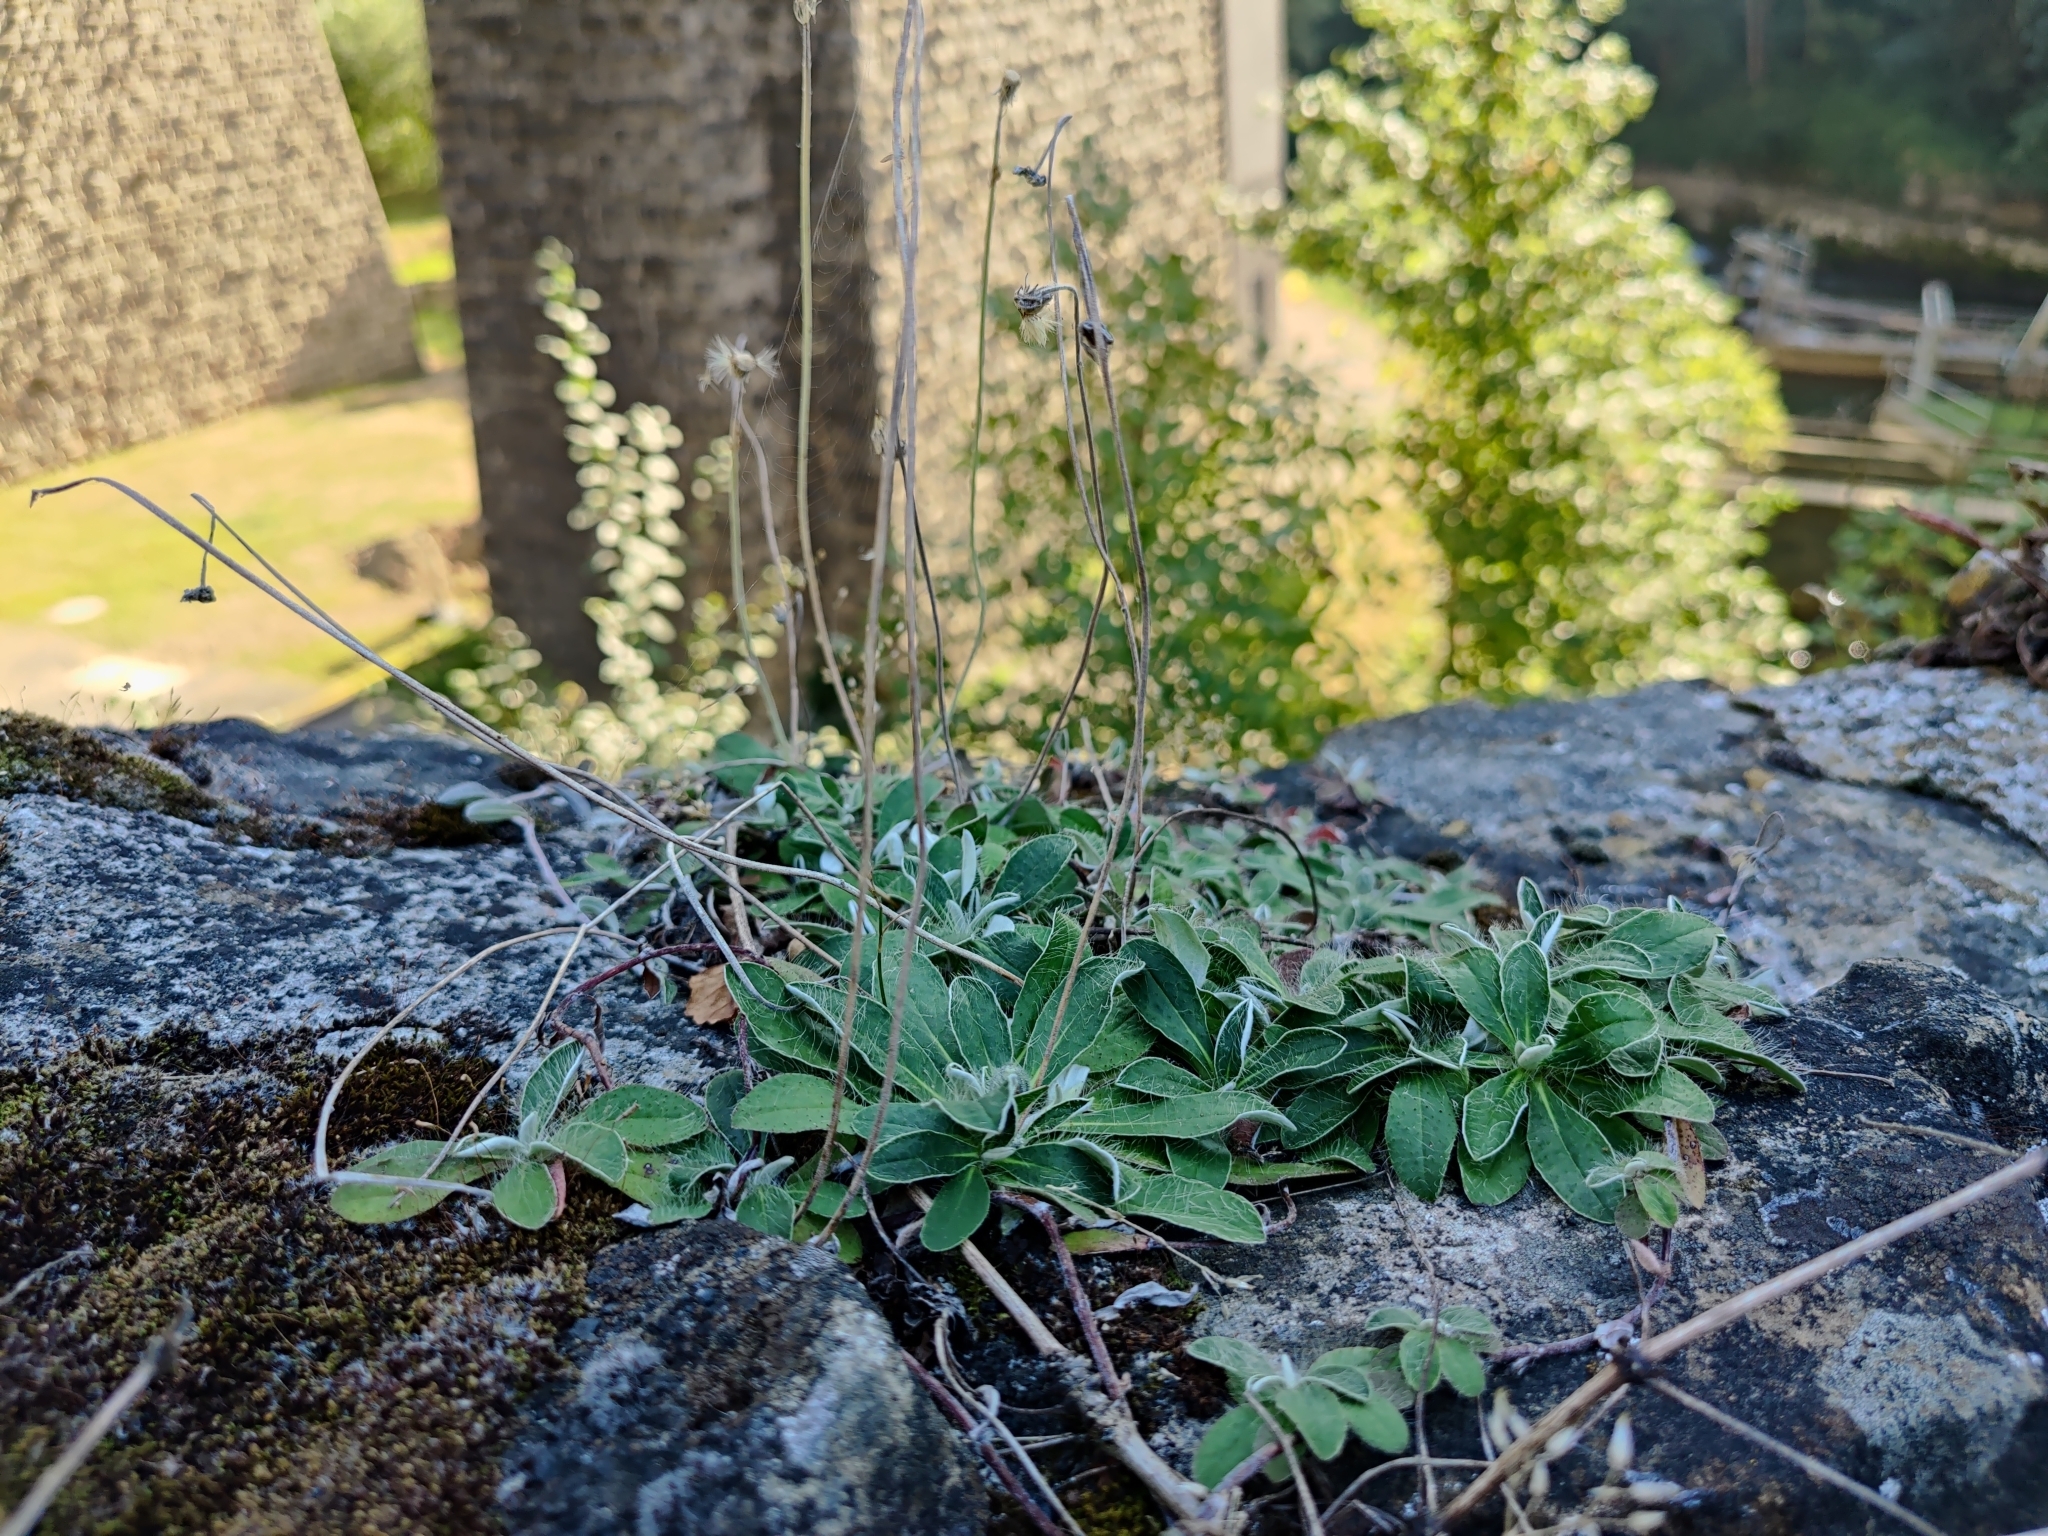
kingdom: Plantae
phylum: Tracheophyta
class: Magnoliopsida
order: Asterales
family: Asteraceae
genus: Pilosella
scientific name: Pilosella officinarum
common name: Mouse-ear hawkweed
